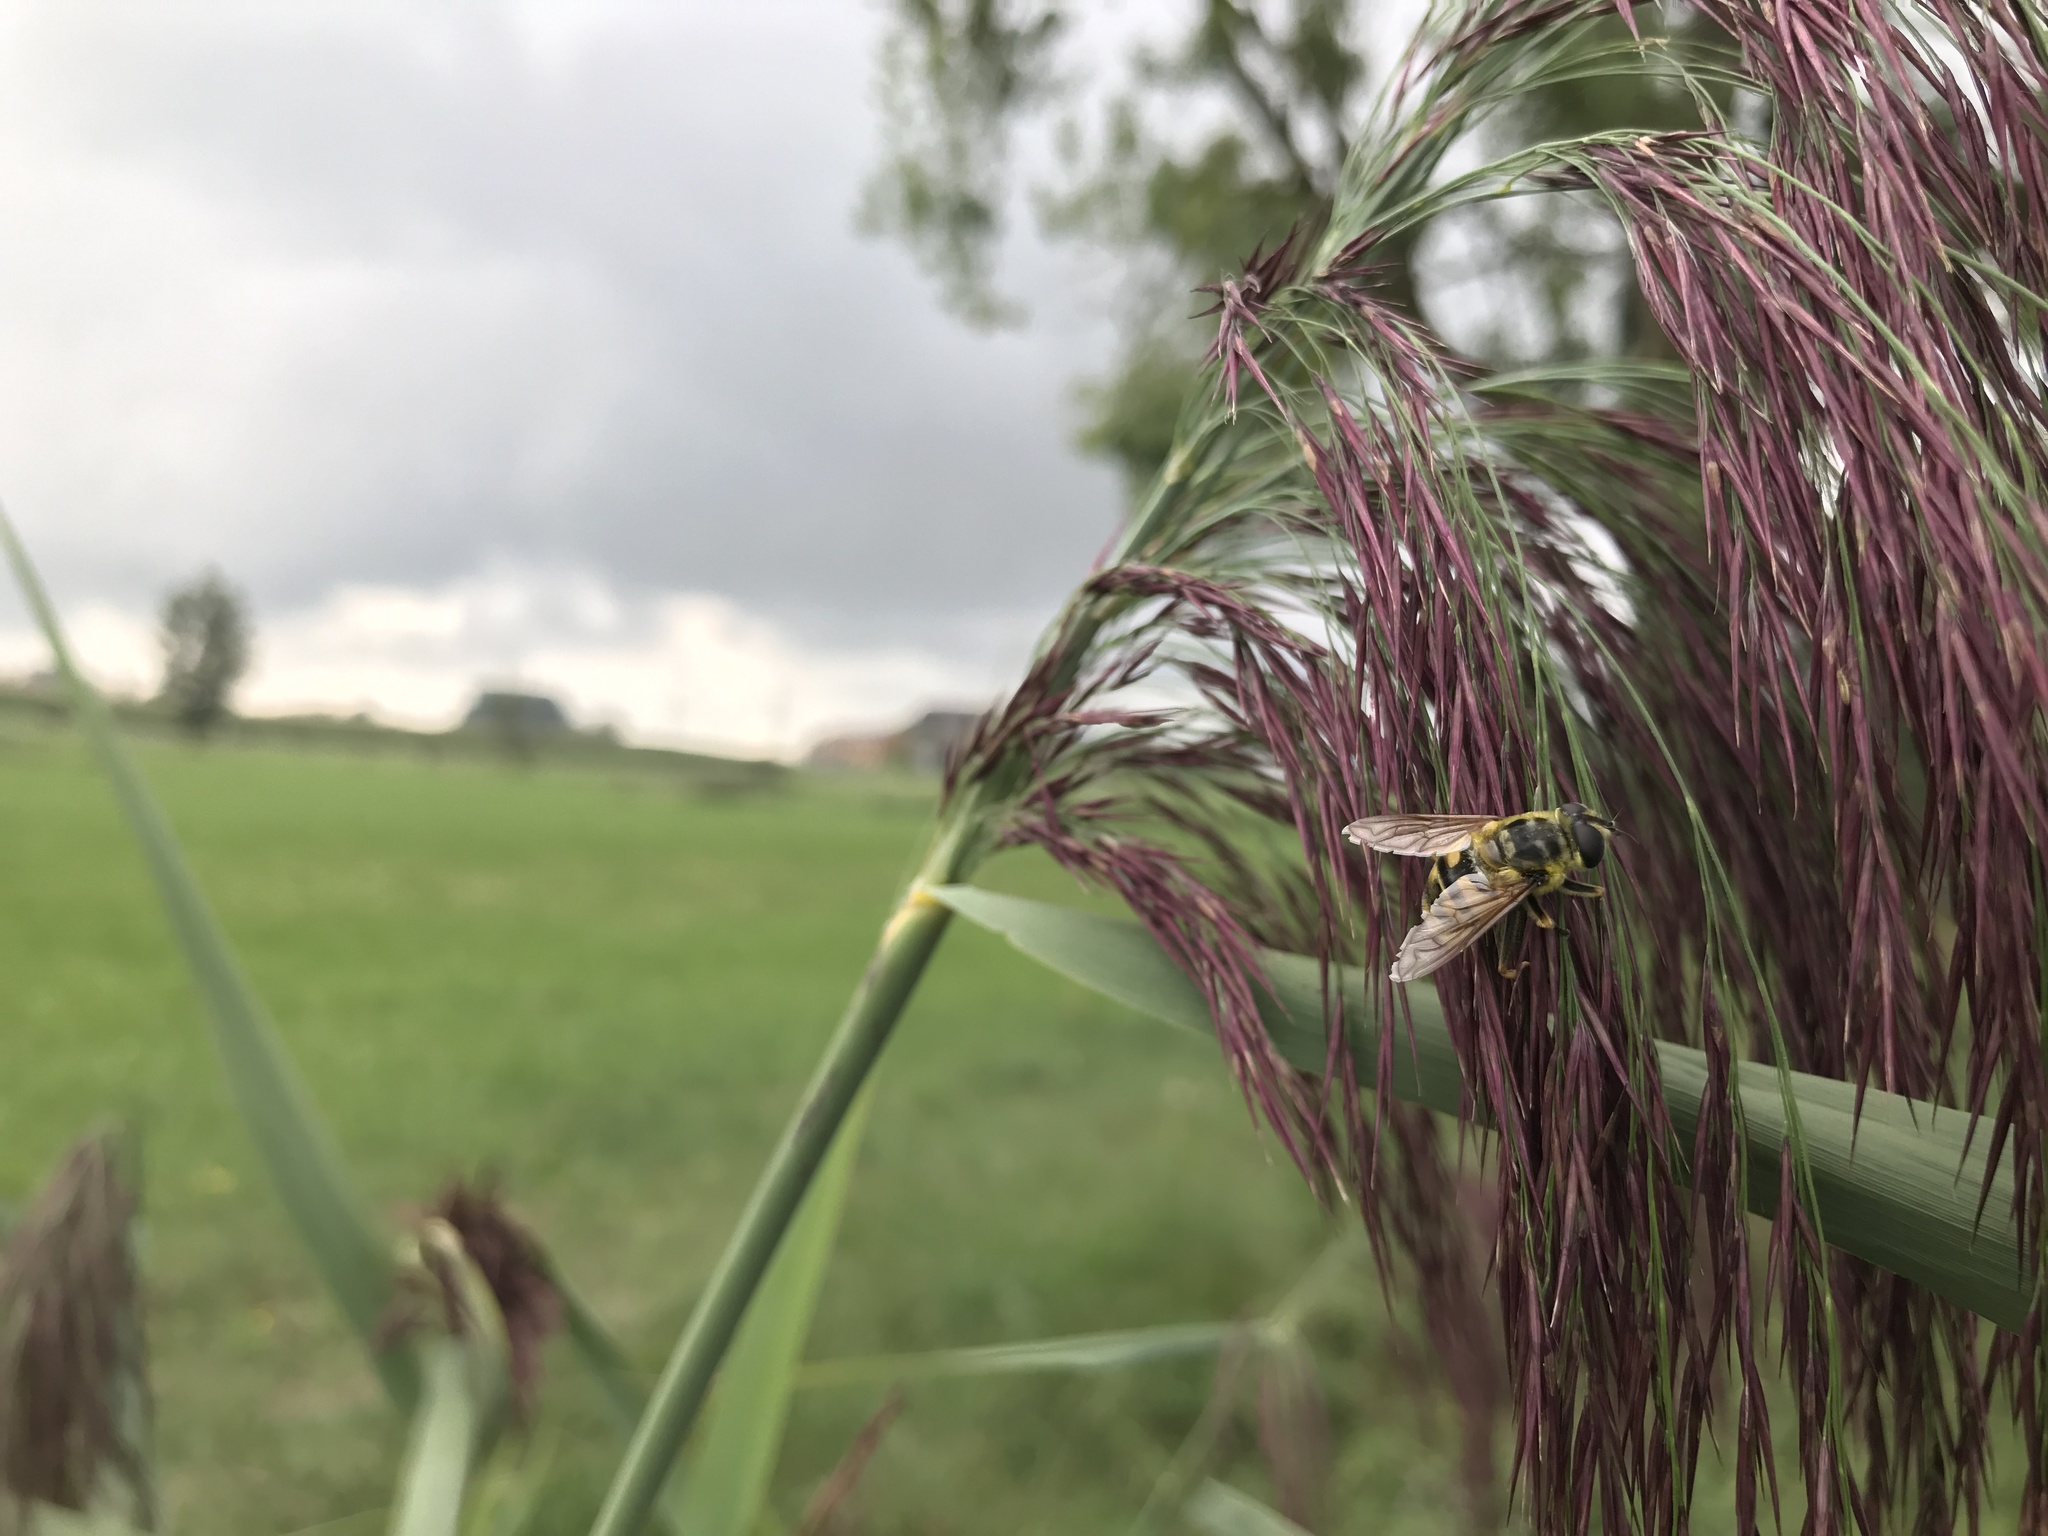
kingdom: Animalia
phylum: Arthropoda
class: Insecta
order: Diptera
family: Syrphidae
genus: Myathropa
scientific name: Myathropa florea
